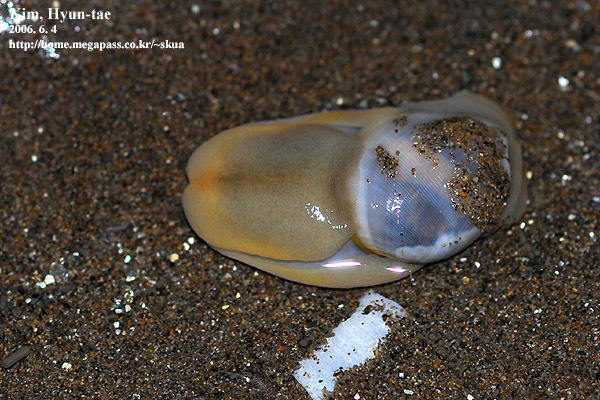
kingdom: Animalia
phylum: Mollusca
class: Gastropoda
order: Cephalaspidea
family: Haminoeidae
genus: Bullacta
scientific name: Bullacta caurina
